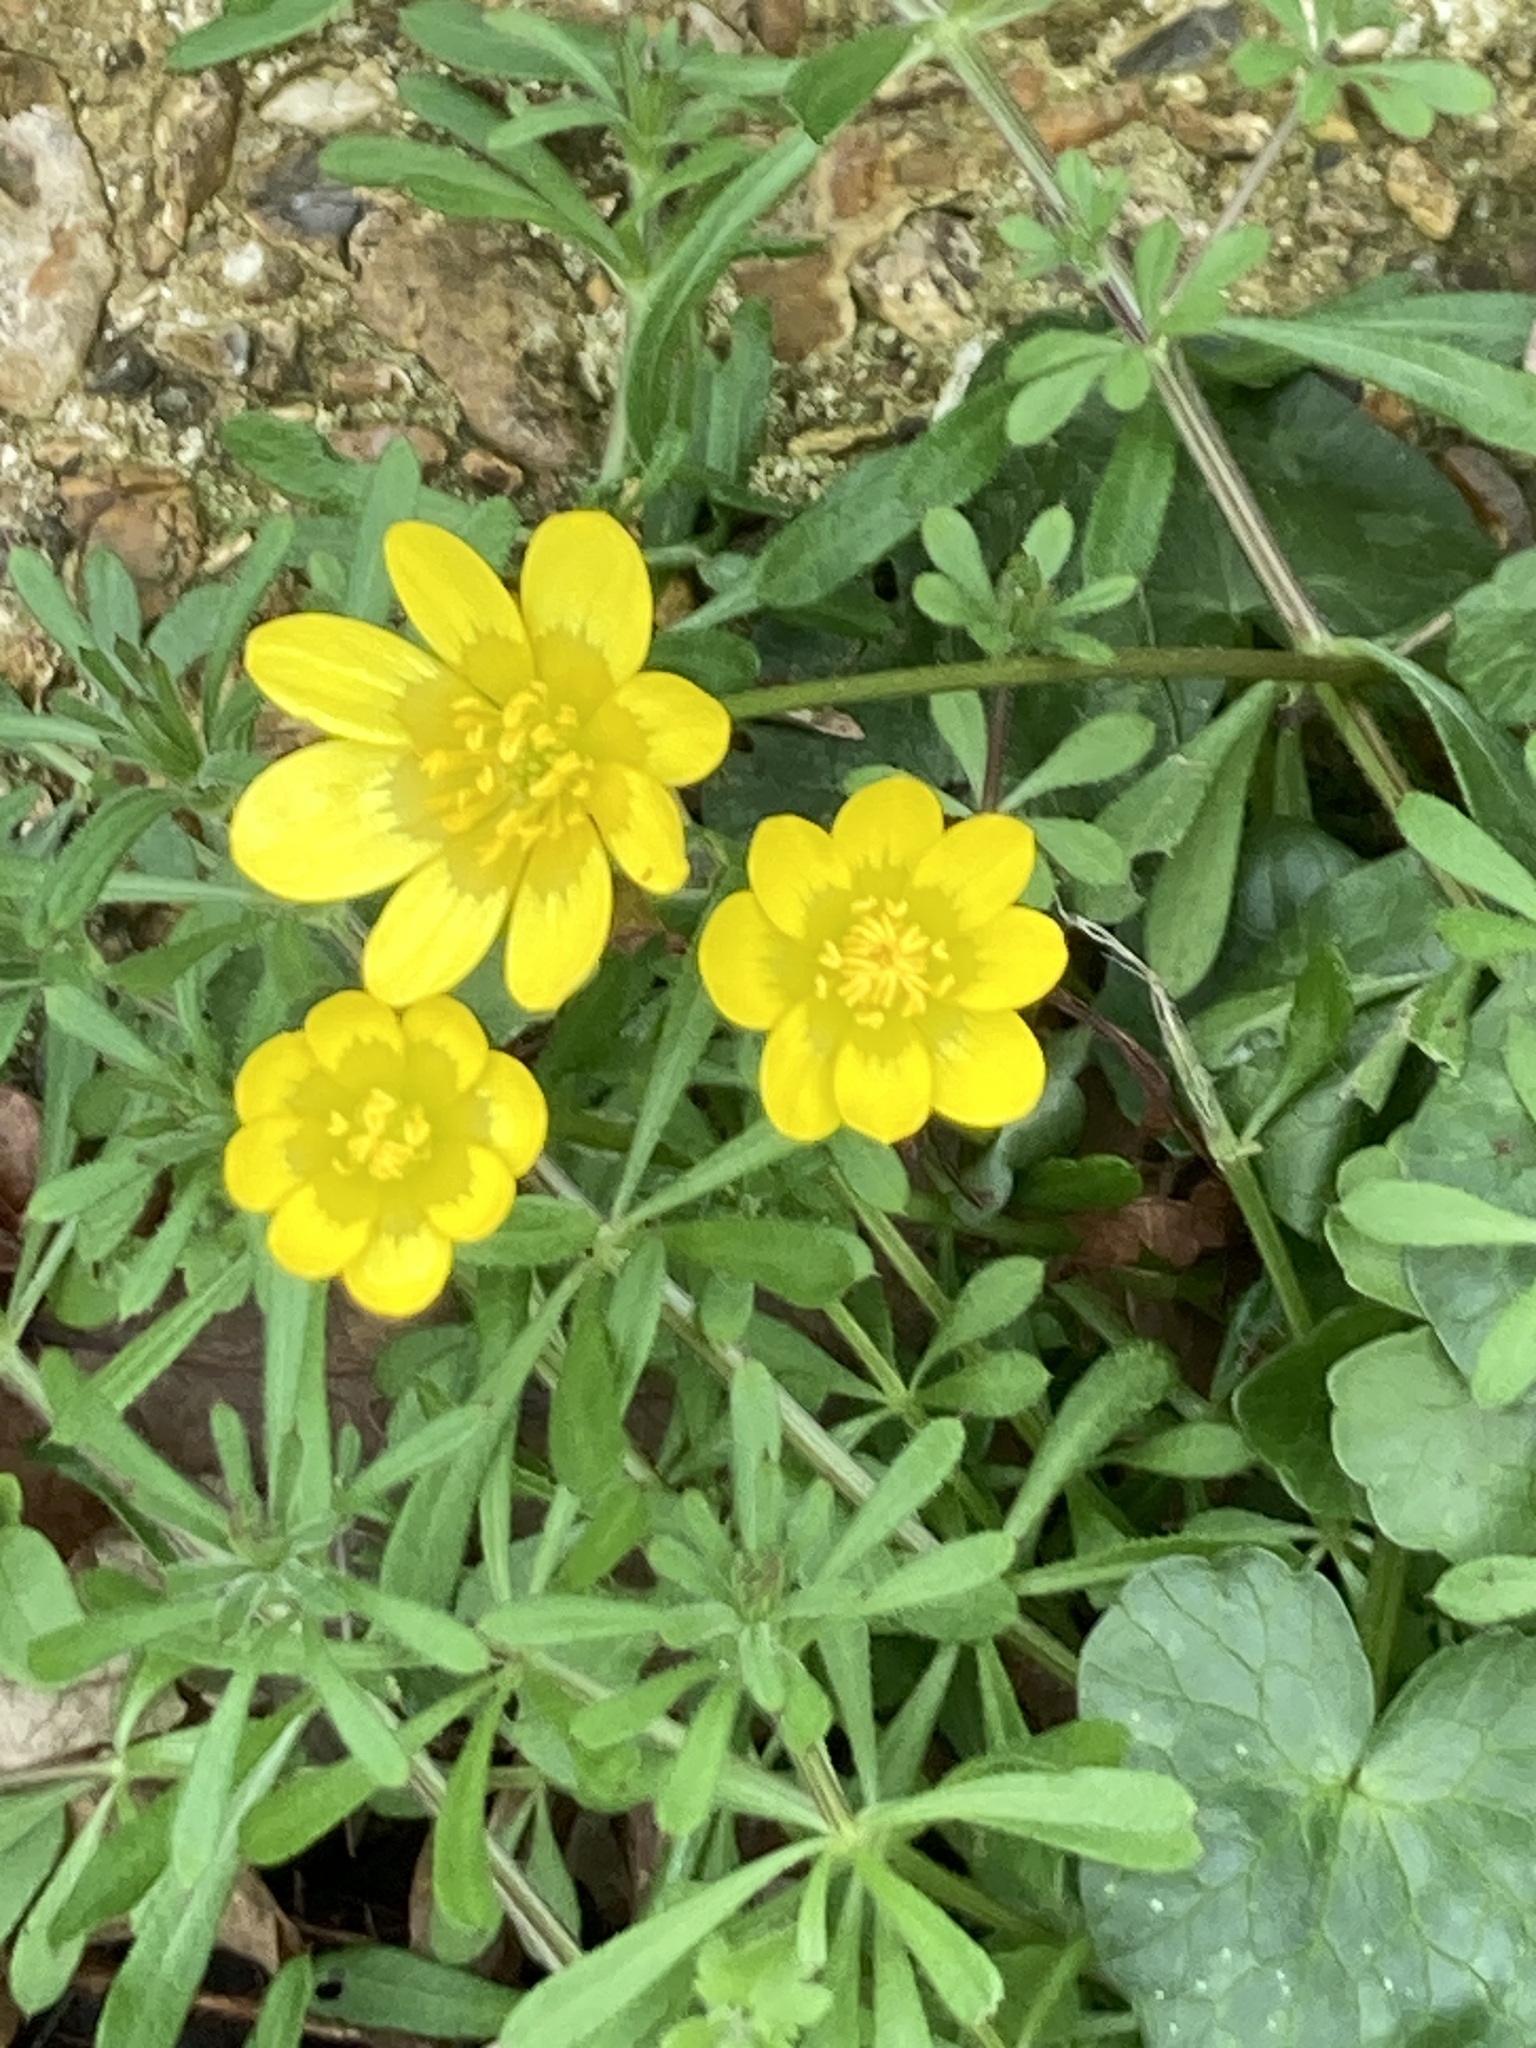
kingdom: Plantae
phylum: Tracheophyta
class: Magnoliopsida
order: Ranunculales
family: Ranunculaceae
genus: Ficaria
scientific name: Ficaria verna
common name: Lesser celandine
